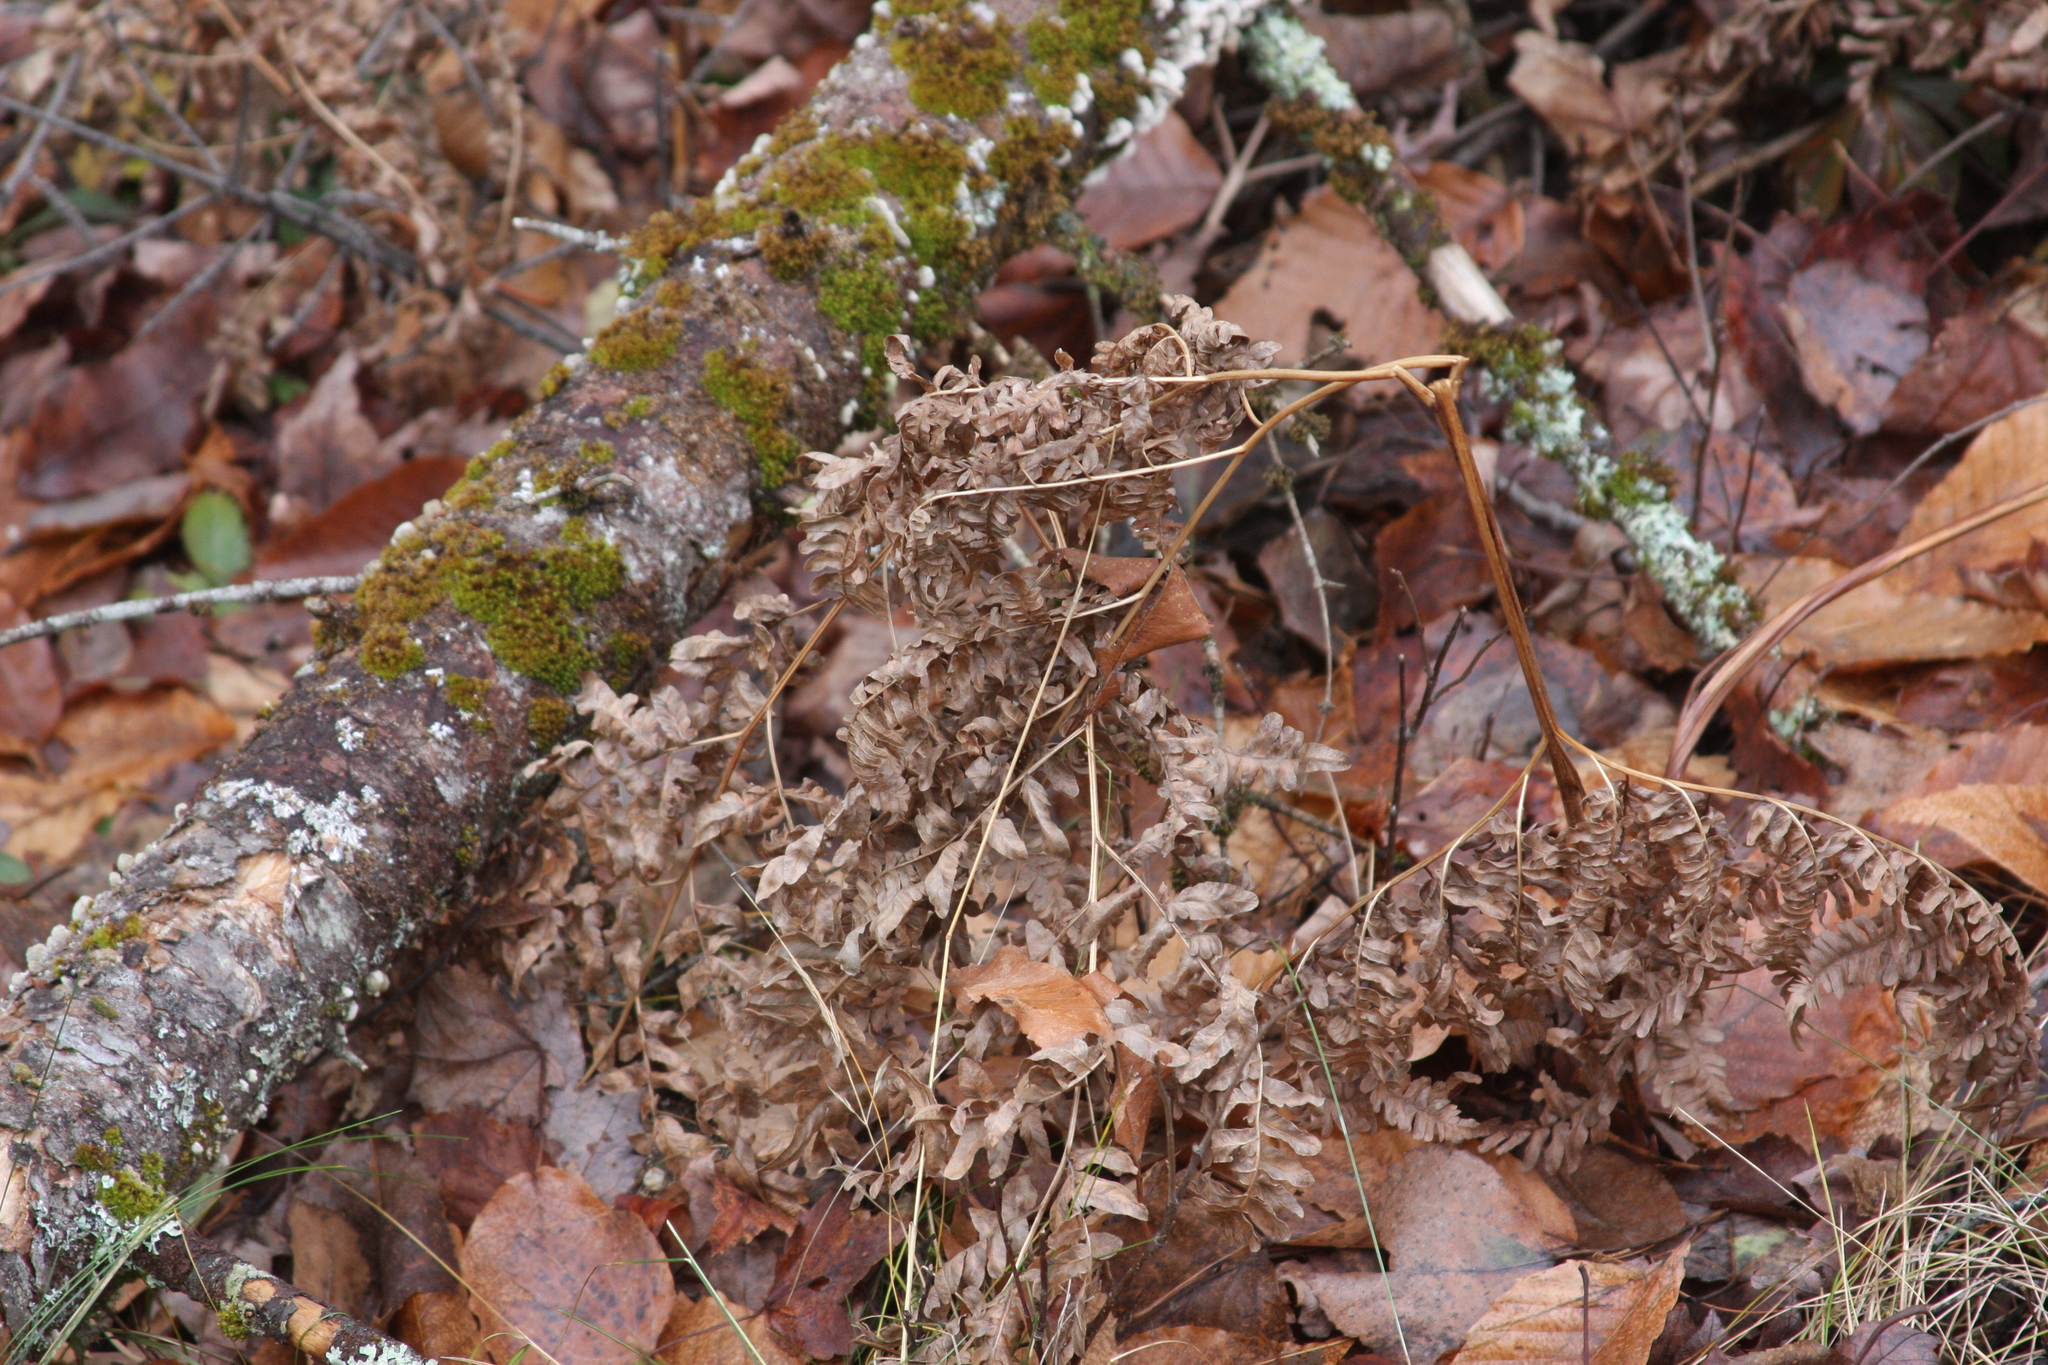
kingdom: Plantae
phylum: Tracheophyta
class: Polypodiopsida
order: Polypodiales
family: Dennstaedtiaceae
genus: Pteridium
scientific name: Pteridium aquilinum
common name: Bracken
